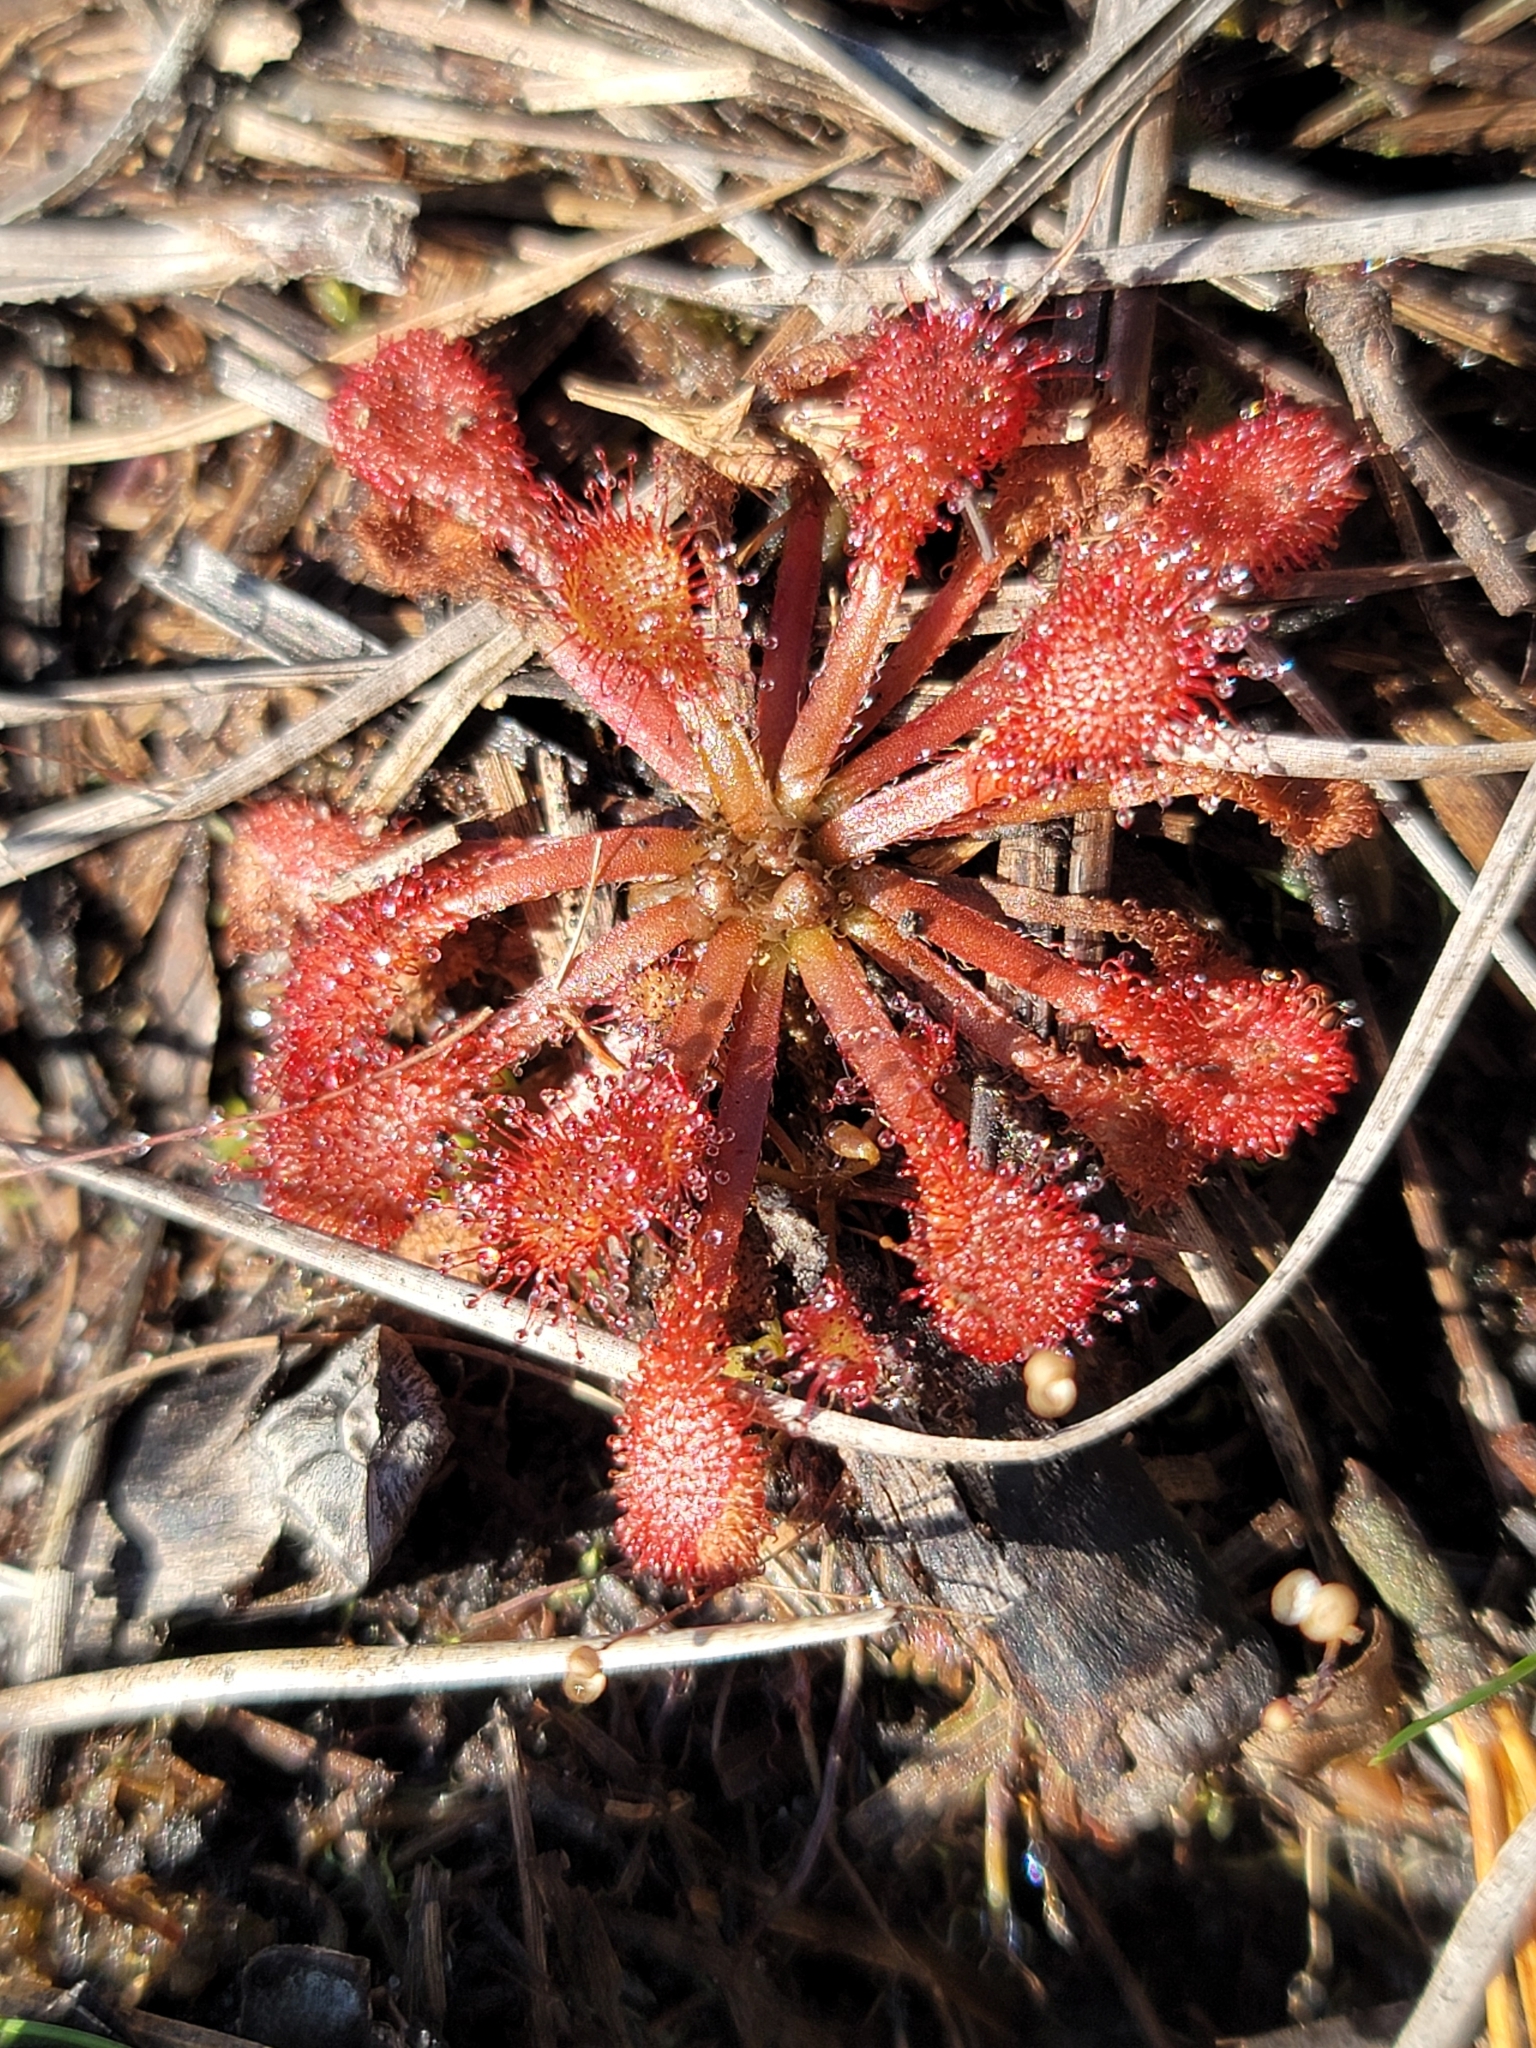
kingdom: Plantae
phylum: Tracheophyta
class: Magnoliopsida
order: Caryophyllales
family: Droseraceae
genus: Drosera
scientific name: Drosera capillaris
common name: Pink sundew
